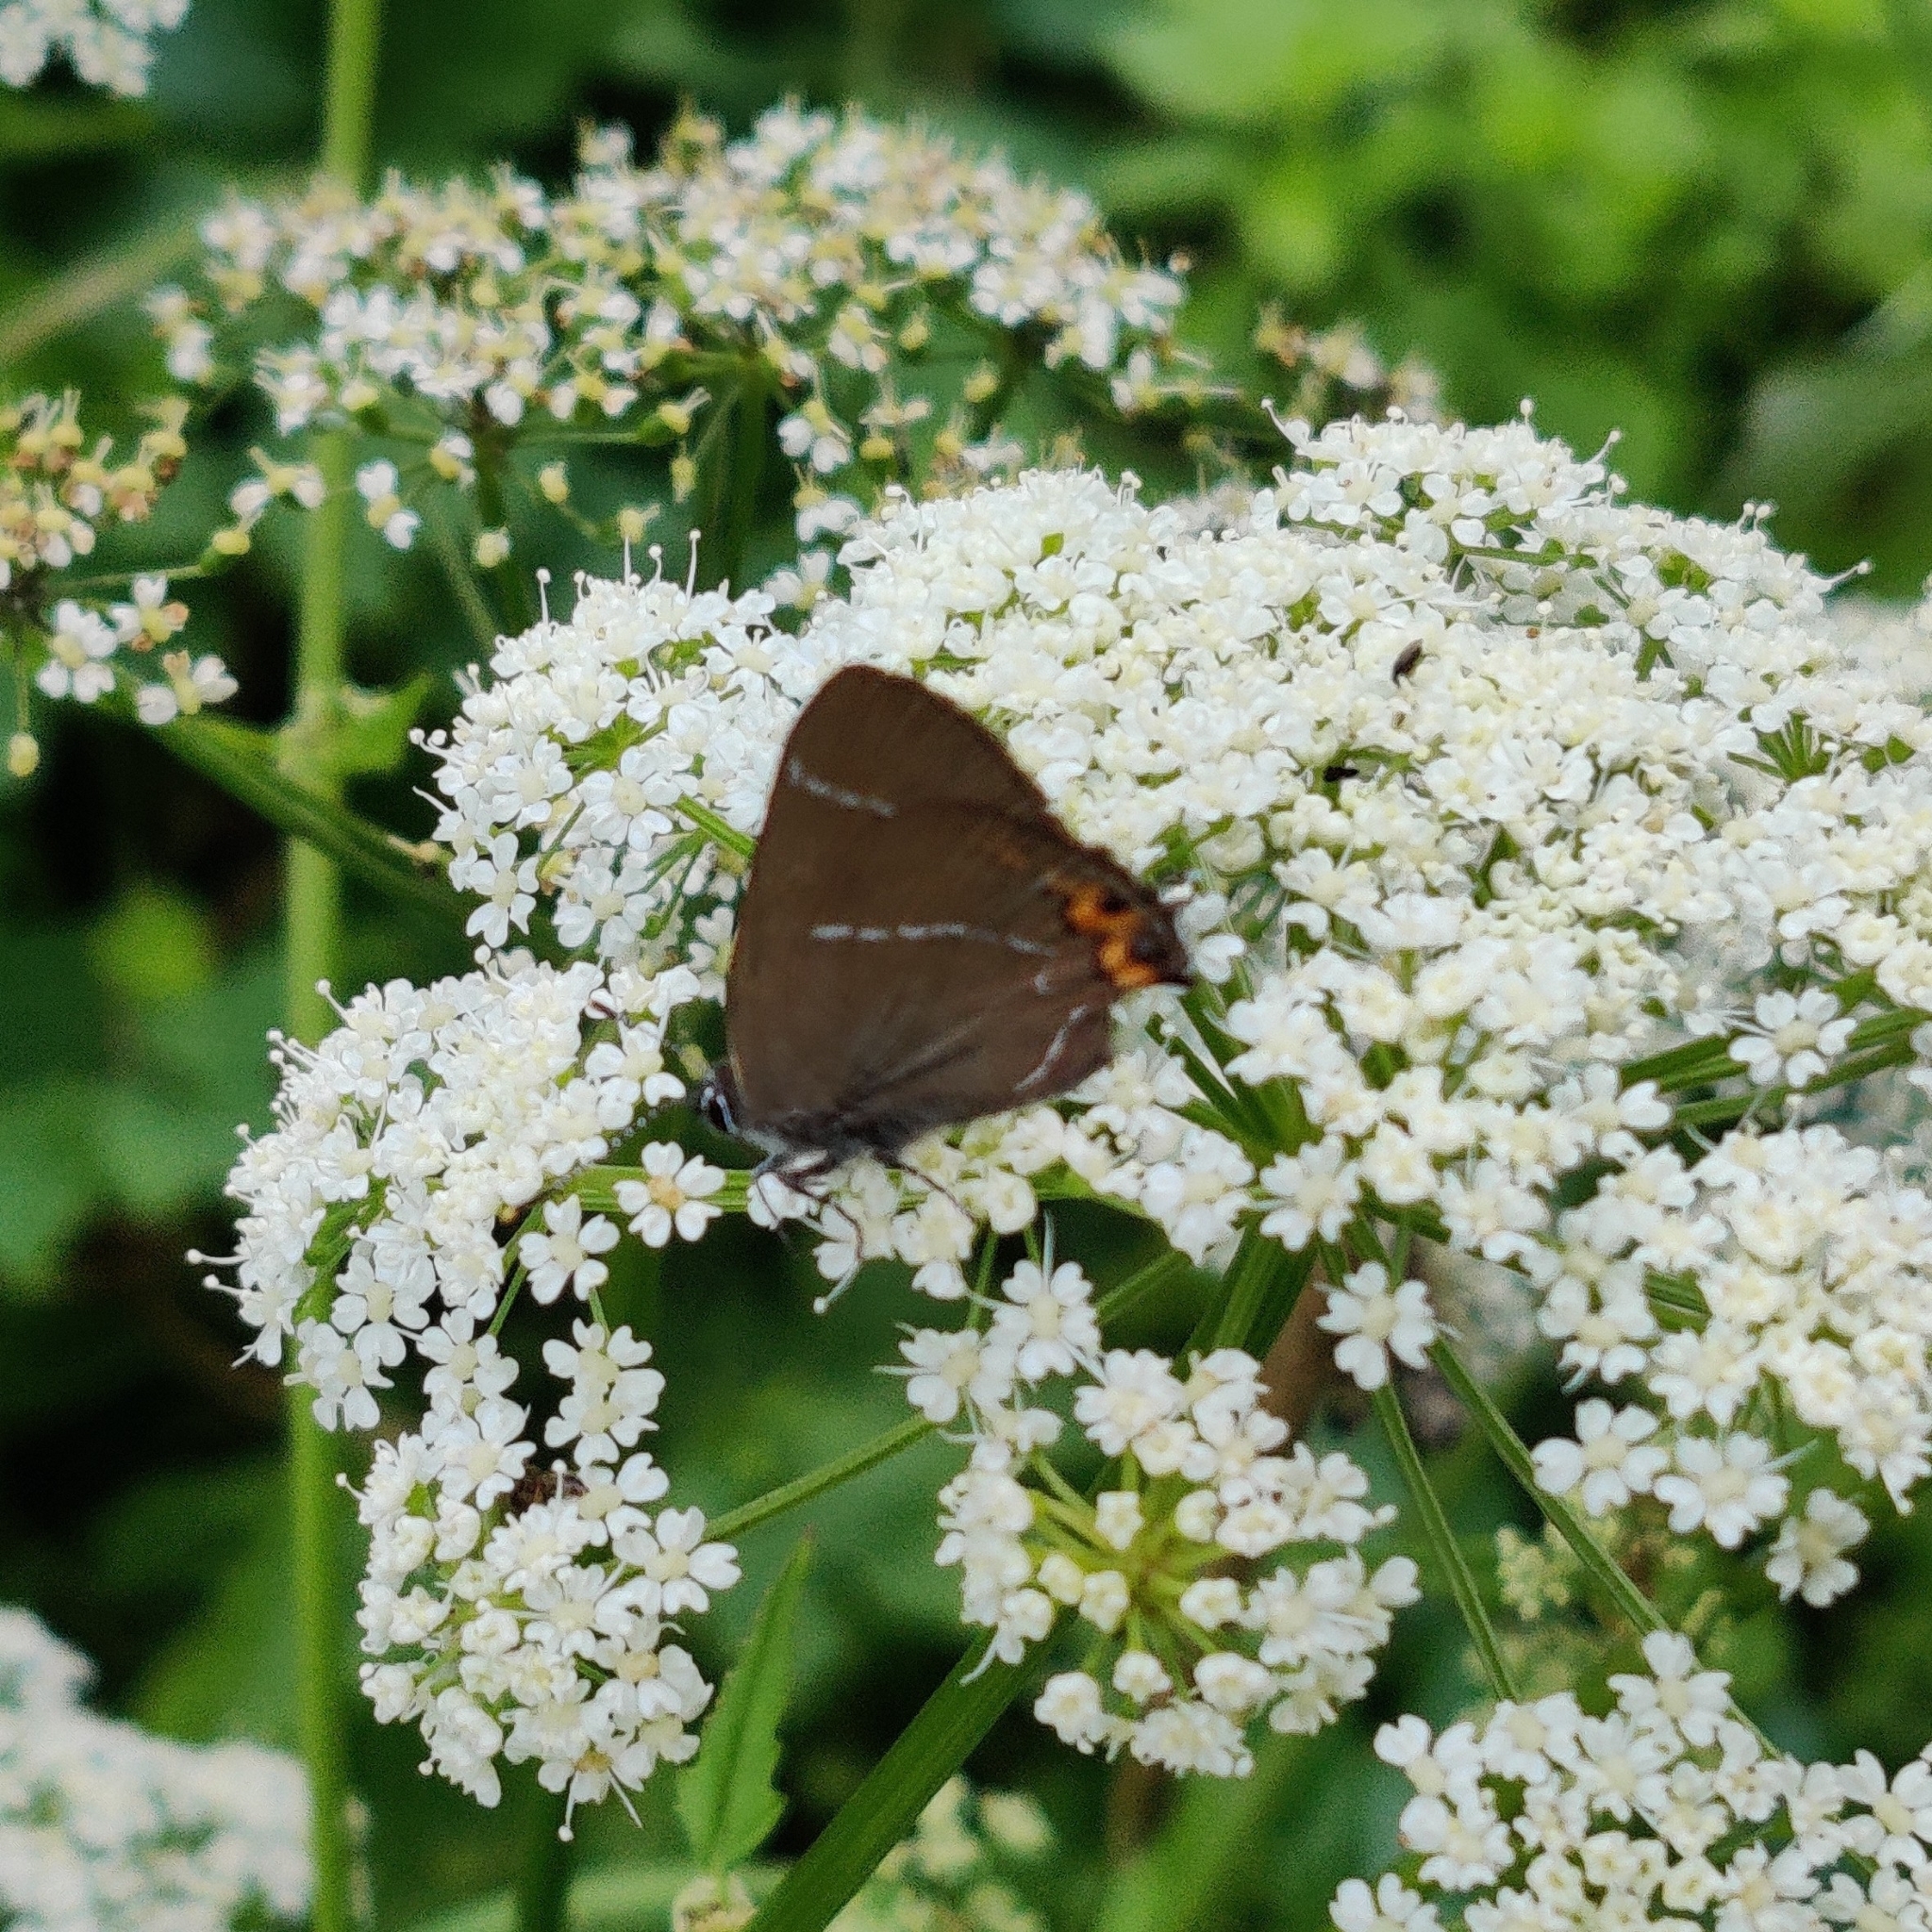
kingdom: Animalia
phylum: Arthropoda
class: Insecta
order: Lepidoptera
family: Lycaenidae
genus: Satyrium
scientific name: Satyrium w-album
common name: White-letter hairstreak
